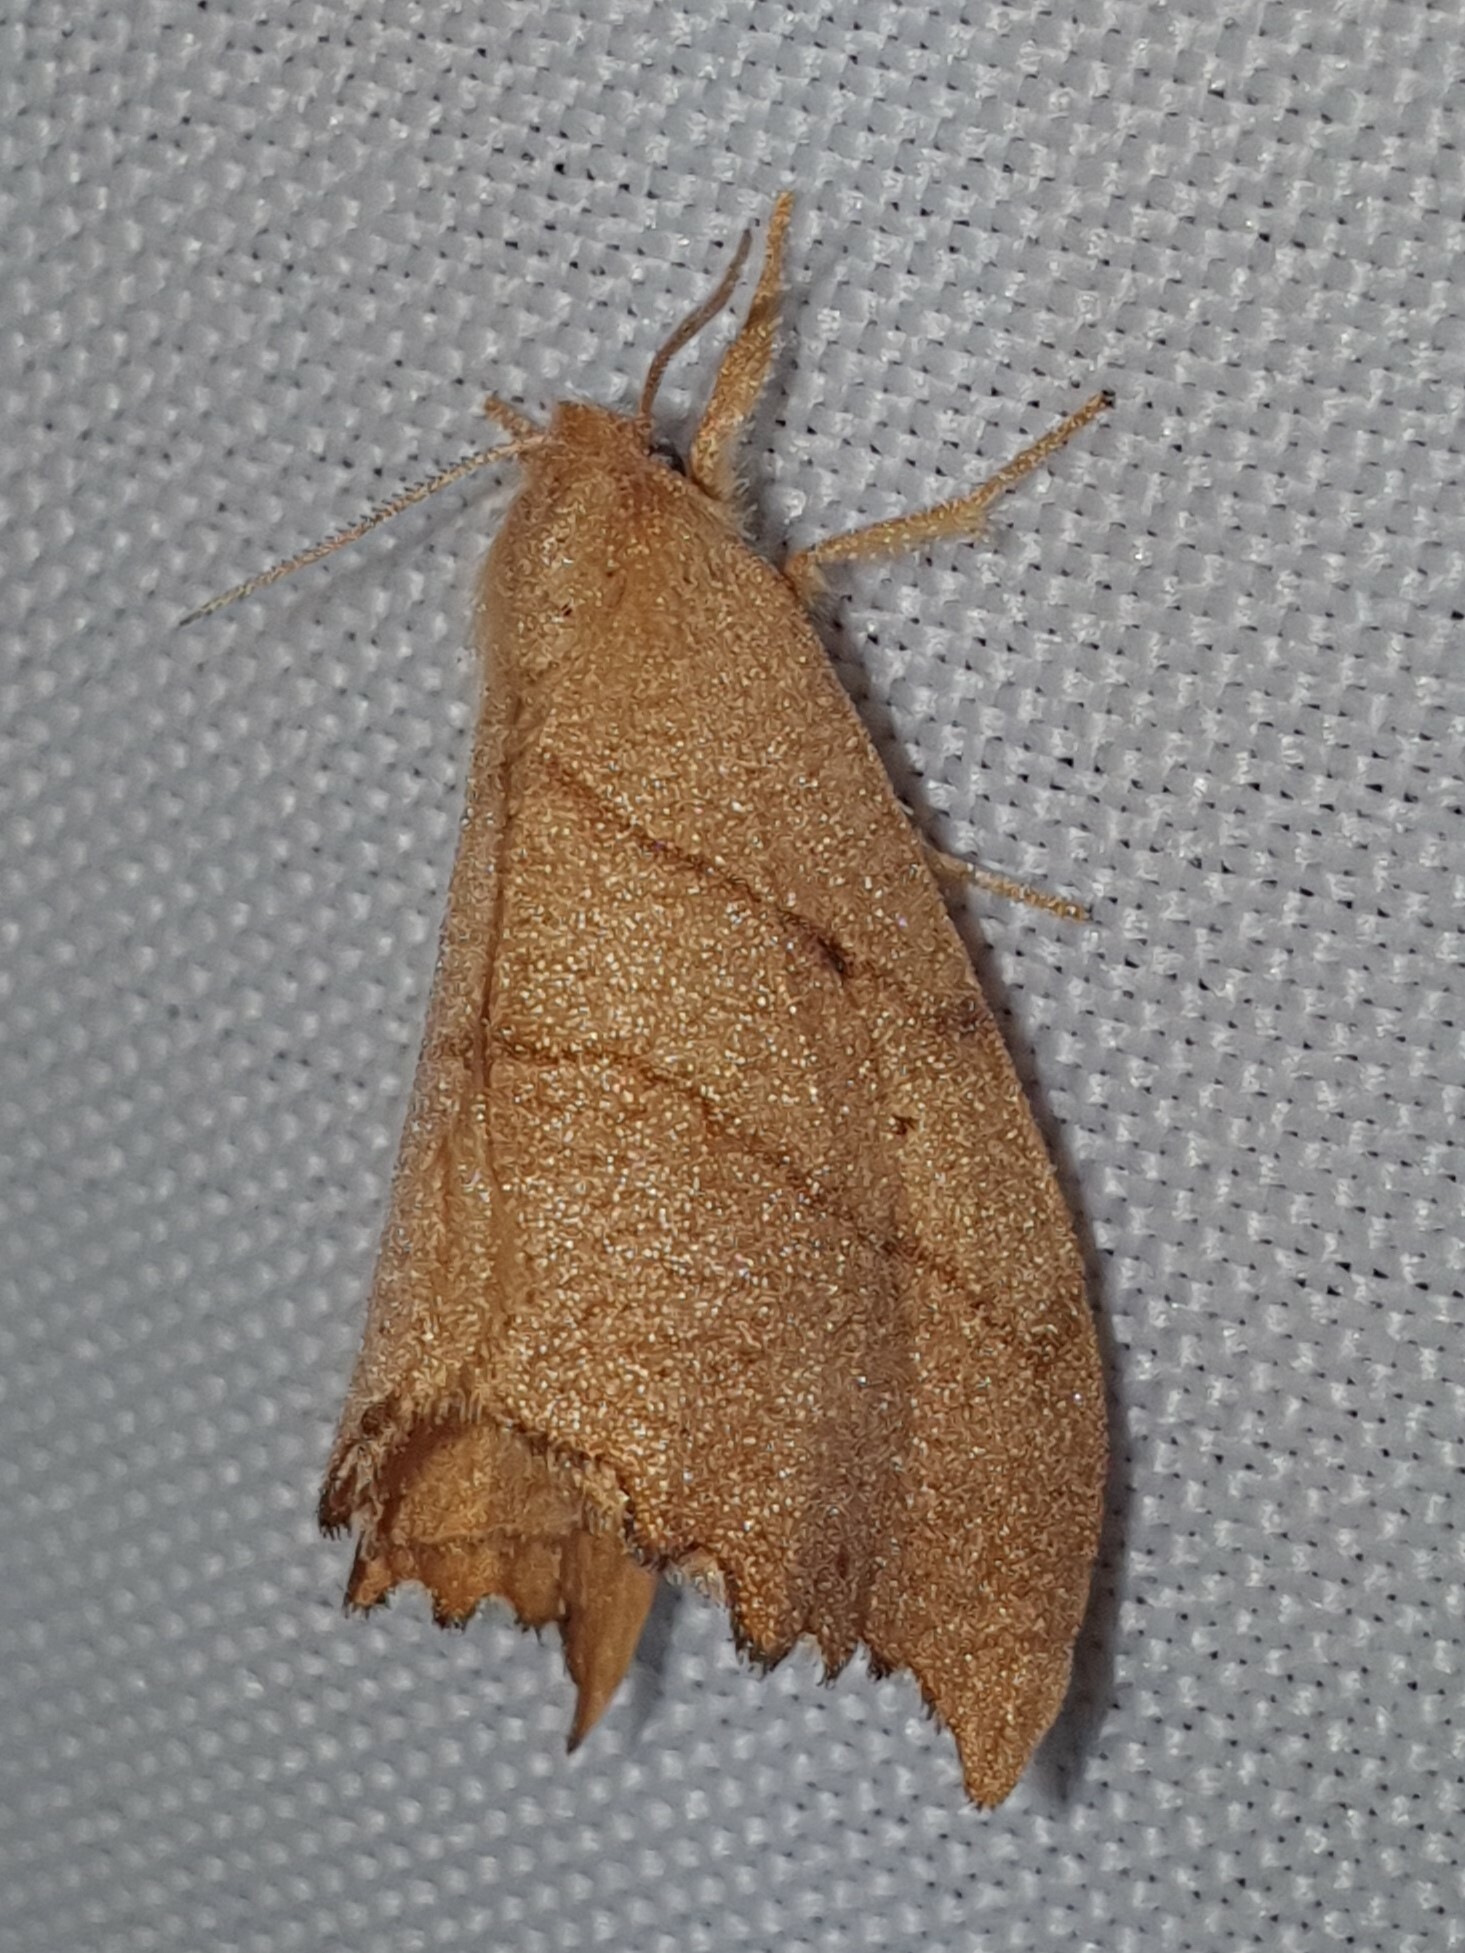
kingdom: Animalia
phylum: Arthropoda
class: Insecta
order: Lepidoptera
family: Drepanidae
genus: Falcaria
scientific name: Falcaria lacertinaria
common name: Scalloped hook-tip
